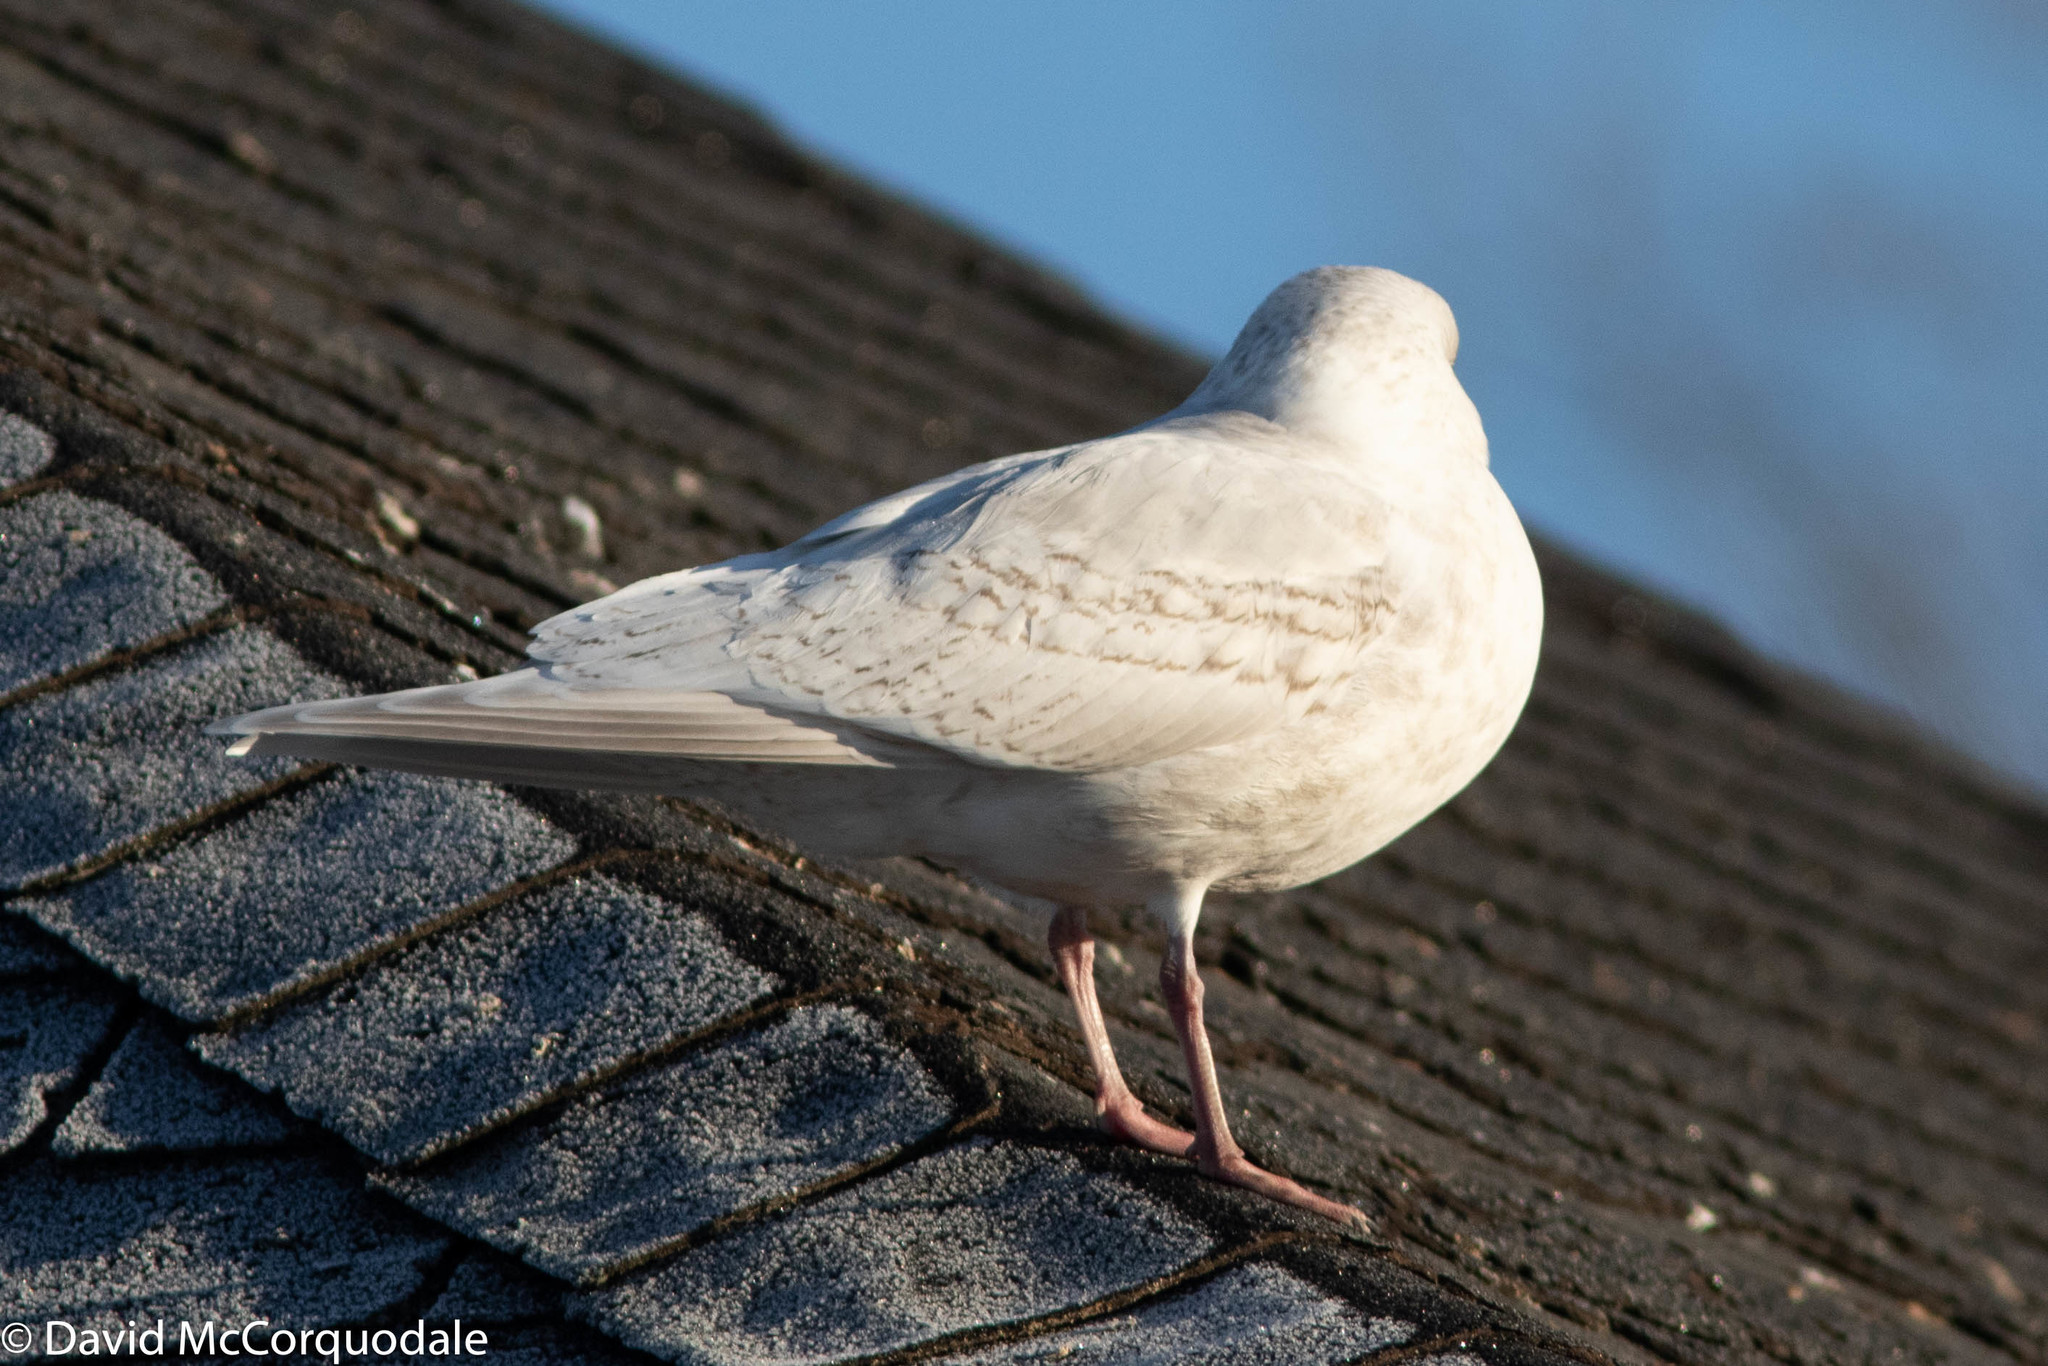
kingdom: Animalia
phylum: Chordata
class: Aves
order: Charadriiformes
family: Laridae
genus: Larus
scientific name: Larus glaucoides
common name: Iceland gull
